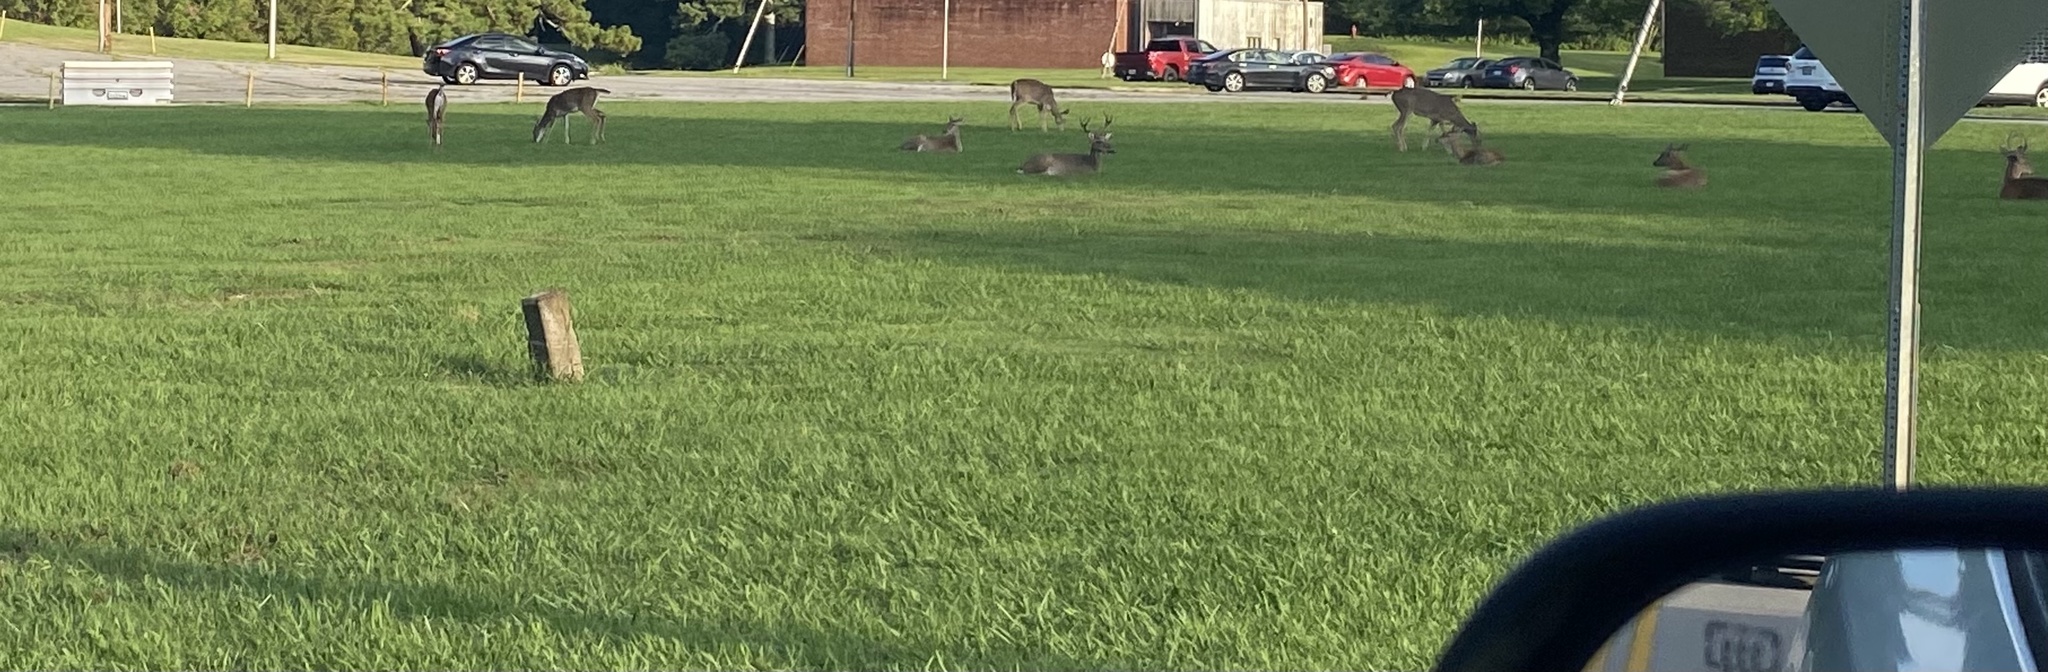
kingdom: Animalia
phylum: Chordata
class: Mammalia
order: Artiodactyla
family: Cervidae
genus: Odocoileus
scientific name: Odocoileus virginianus
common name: White-tailed deer
